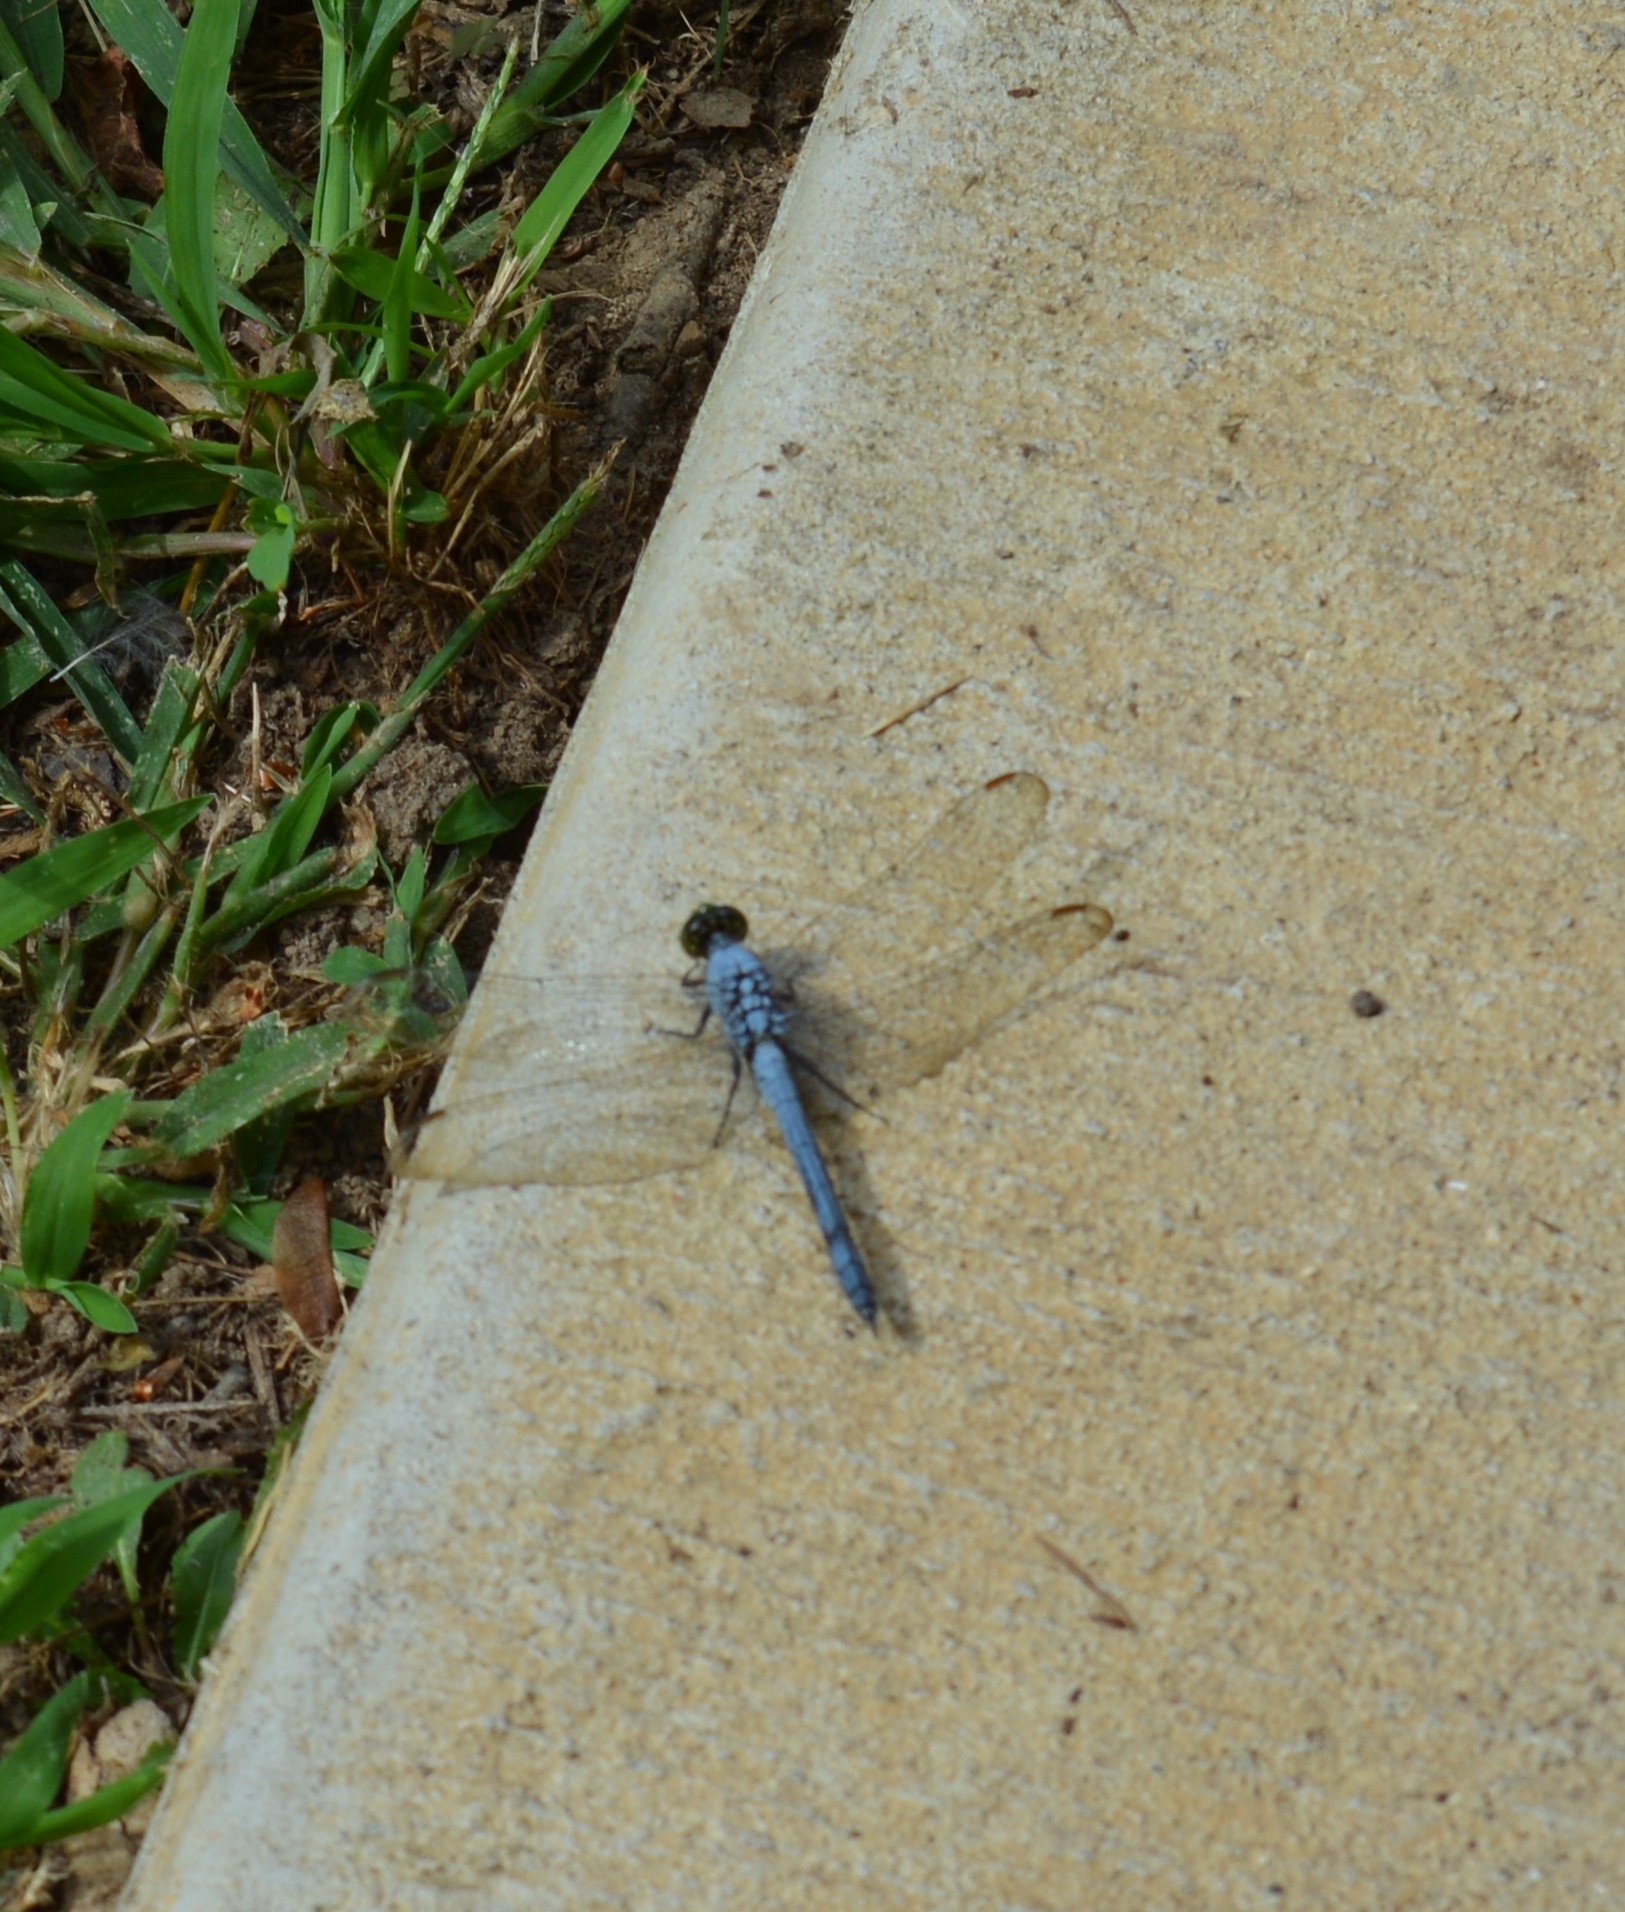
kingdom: Animalia
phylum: Arthropoda
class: Insecta
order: Odonata
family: Libellulidae
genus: Erythemis
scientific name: Erythemis simplicicollis
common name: Eastern pondhawk
